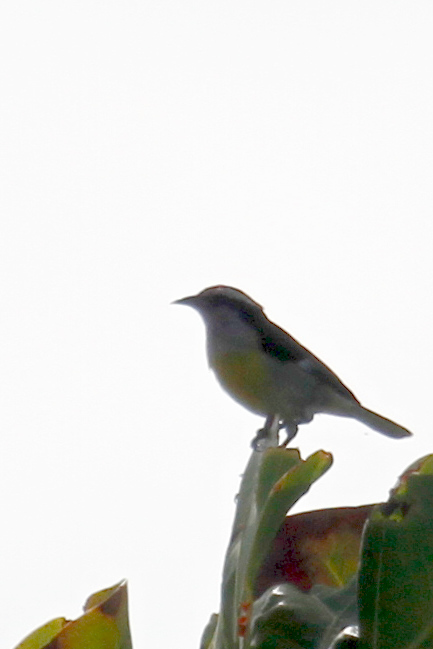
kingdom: Animalia
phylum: Chordata
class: Aves
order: Passeriformes
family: Thraupidae
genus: Coereba
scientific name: Coereba flaveola
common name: Bananaquit
